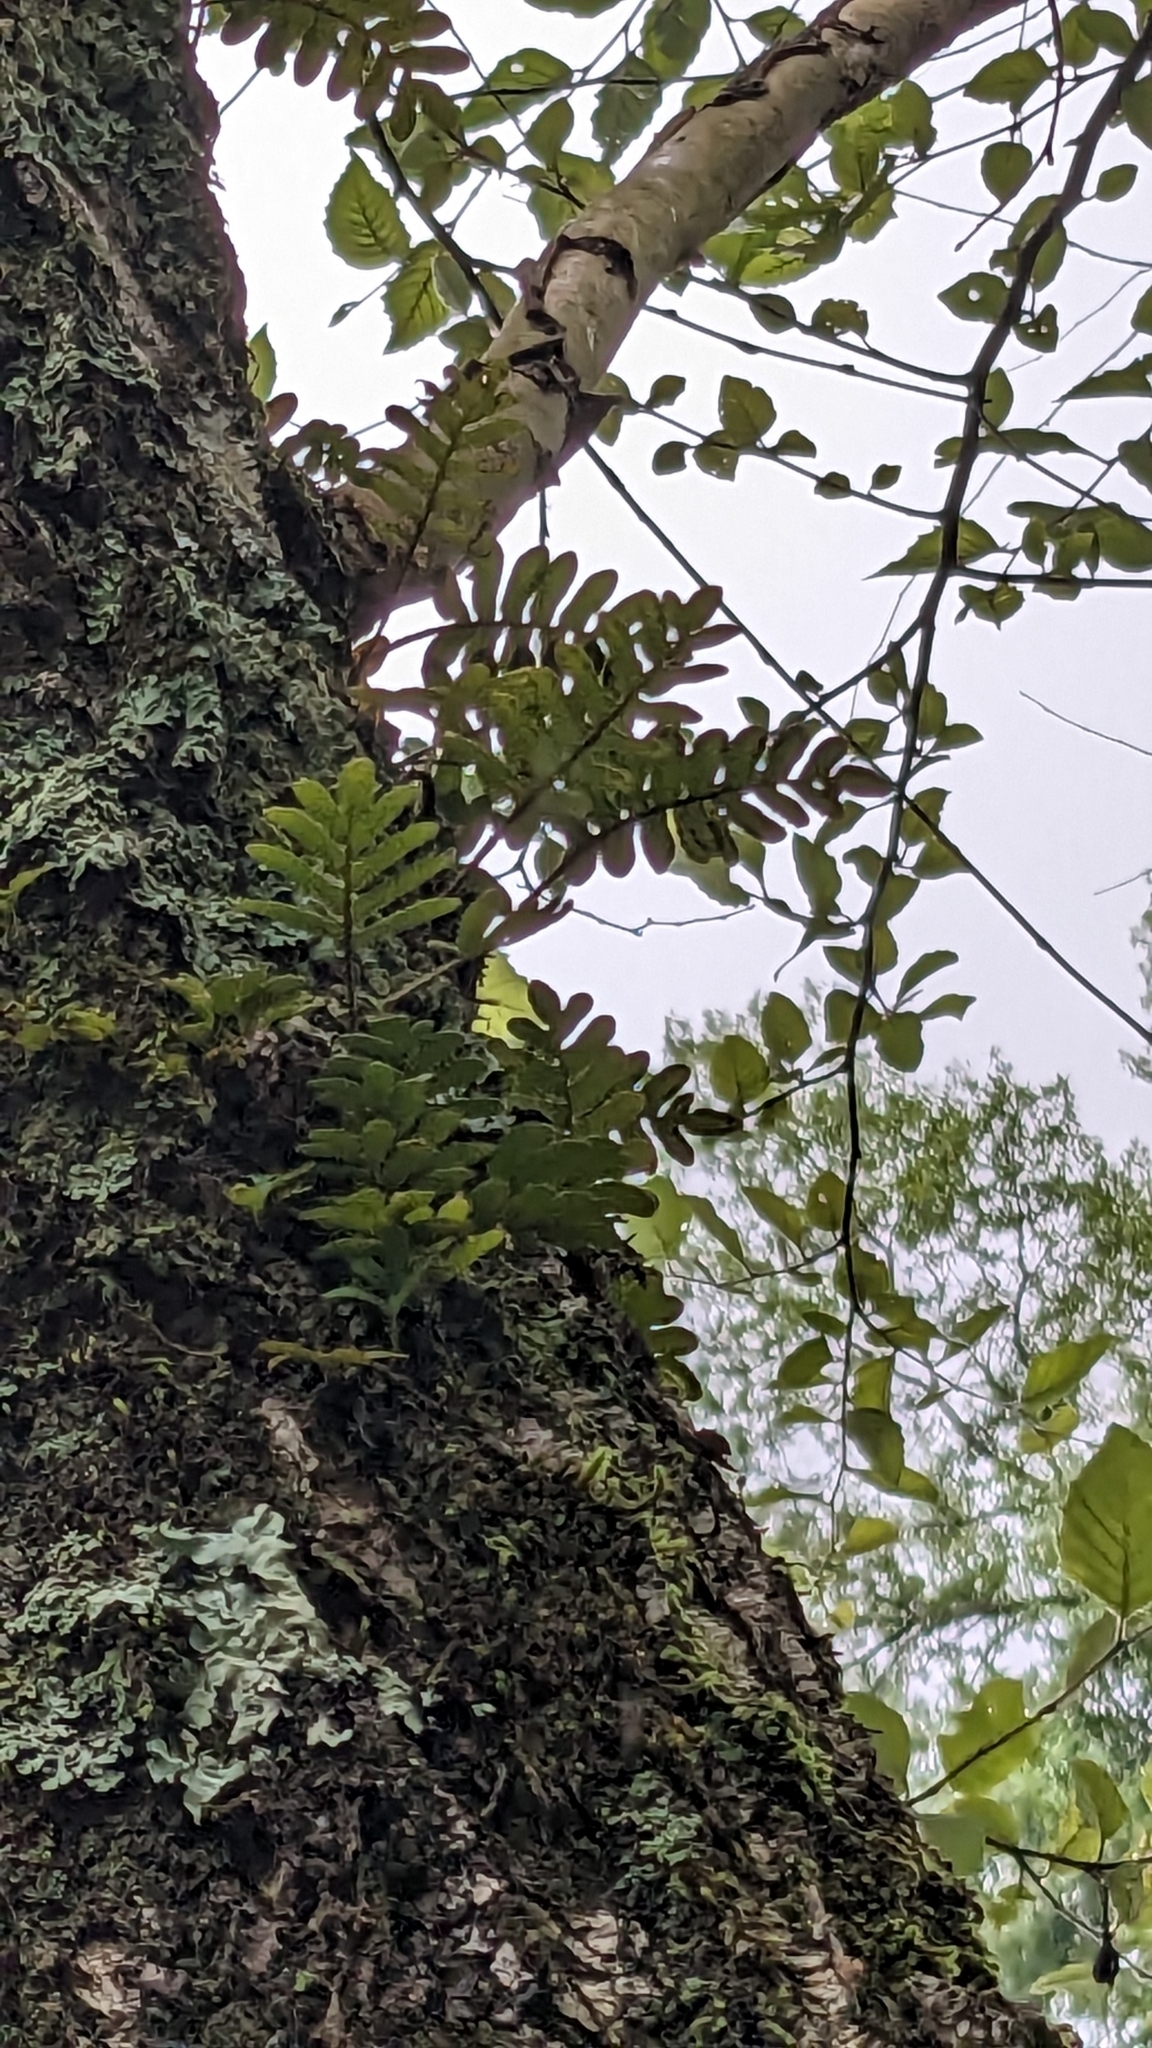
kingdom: Plantae
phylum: Tracheophyta
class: Polypodiopsida
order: Polypodiales
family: Polypodiaceae
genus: Pleopeltis
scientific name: Pleopeltis michauxiana
